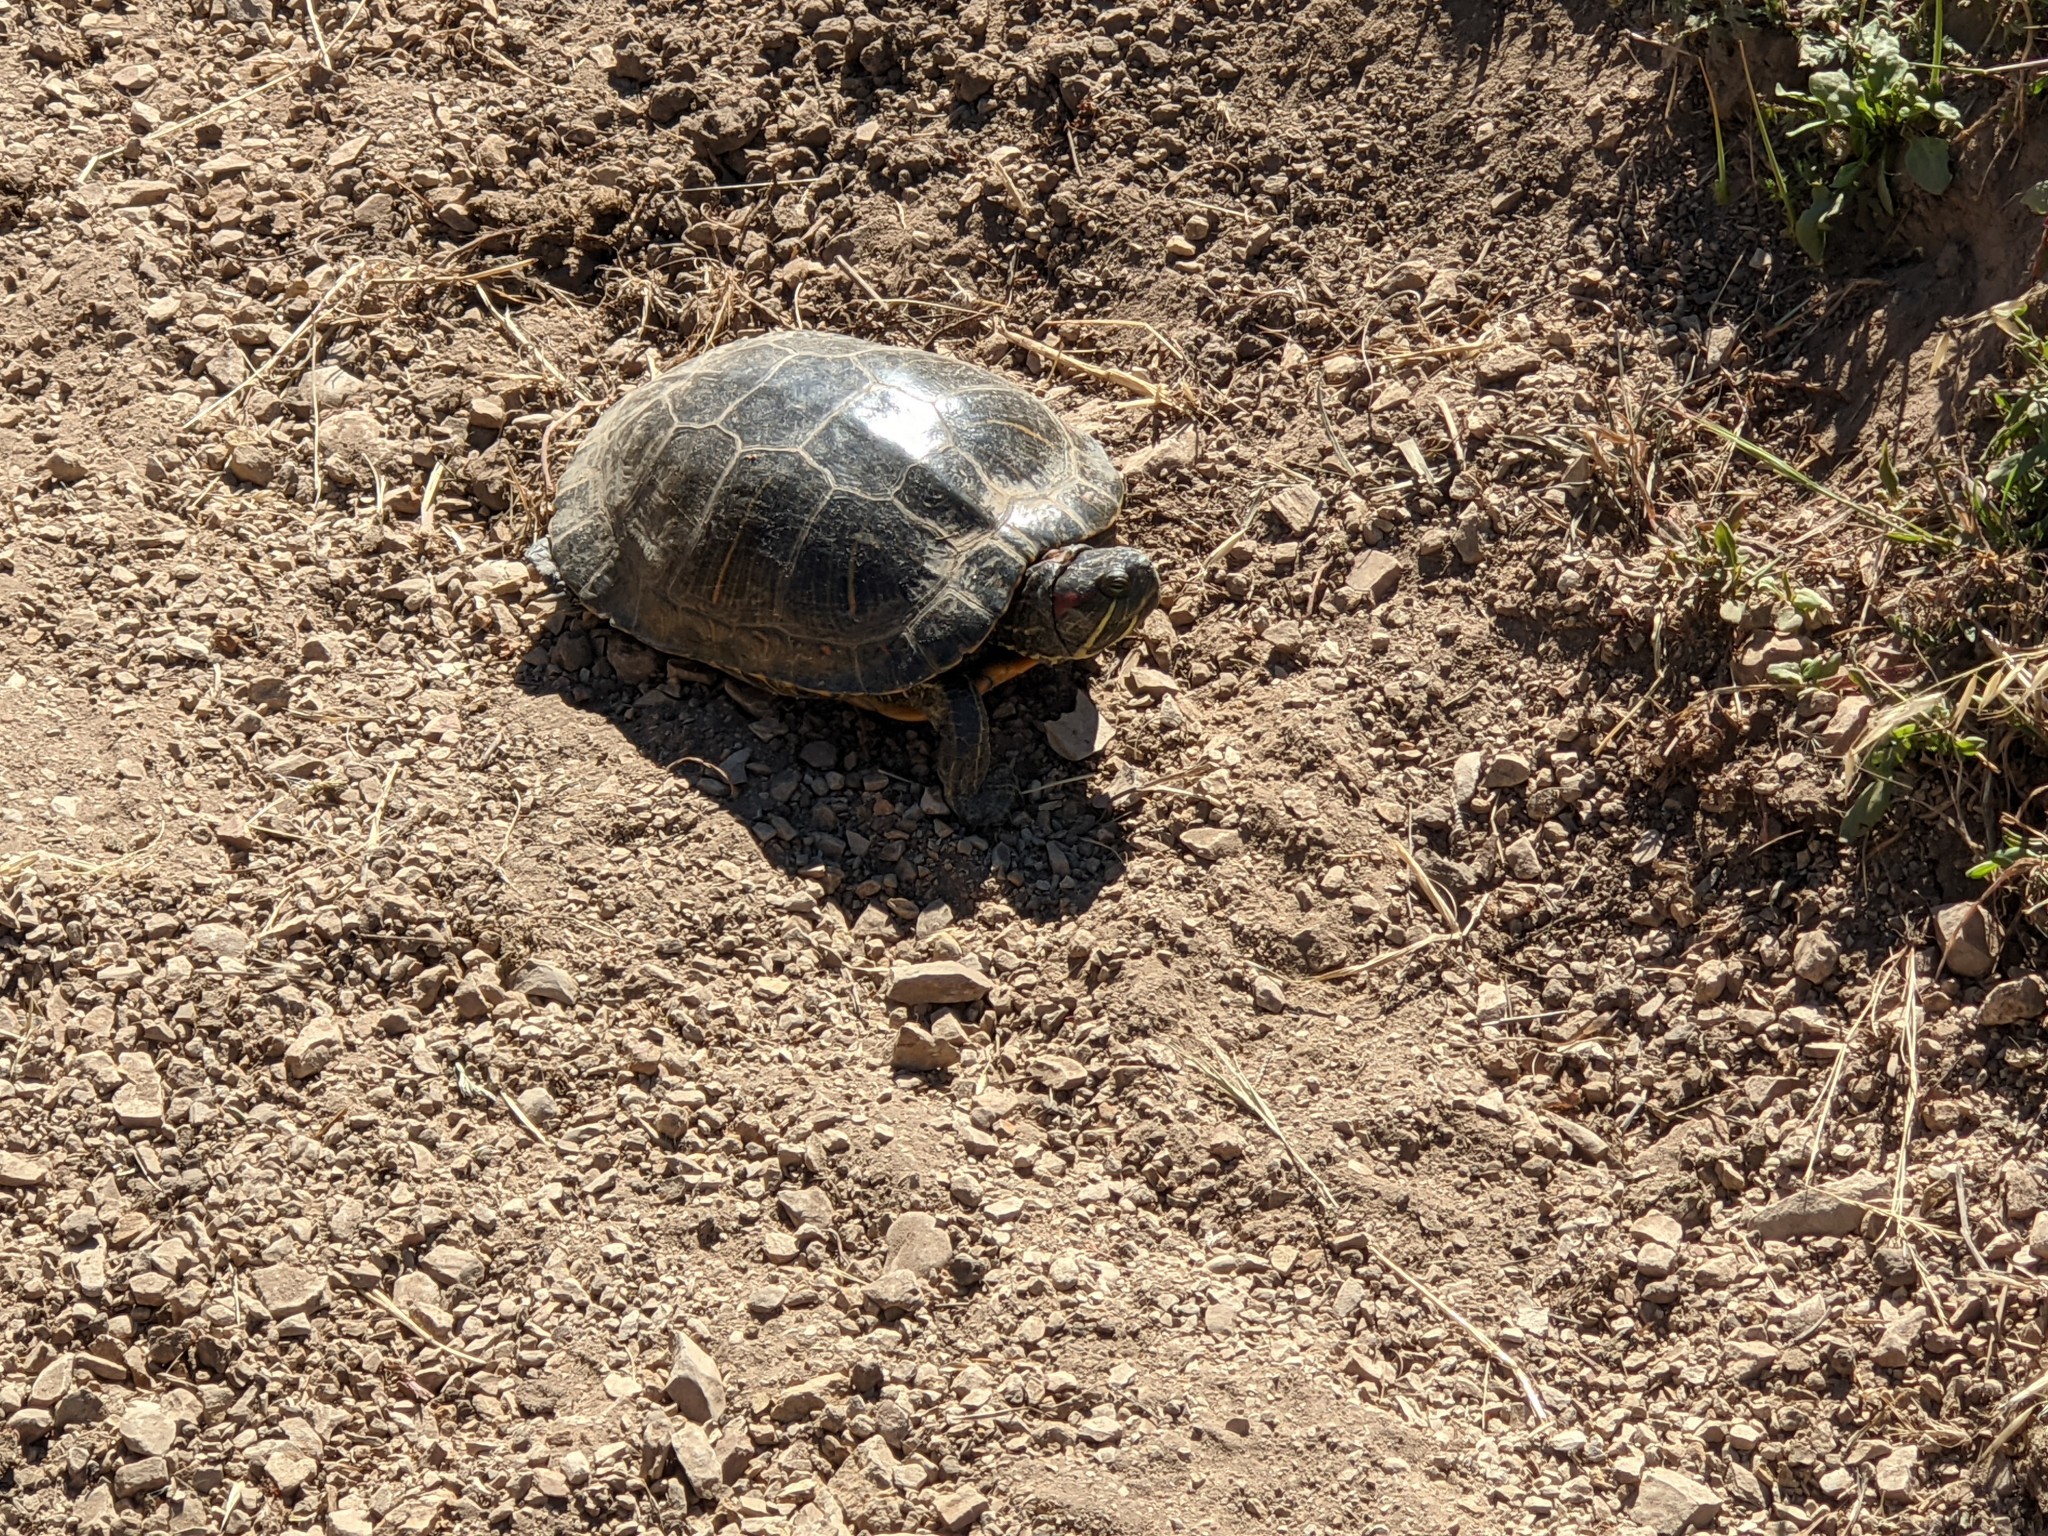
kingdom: Animalia
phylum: Chordata
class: Testudines
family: Emydidae
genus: Trachemys
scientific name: Trachemys scripta
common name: Slider
